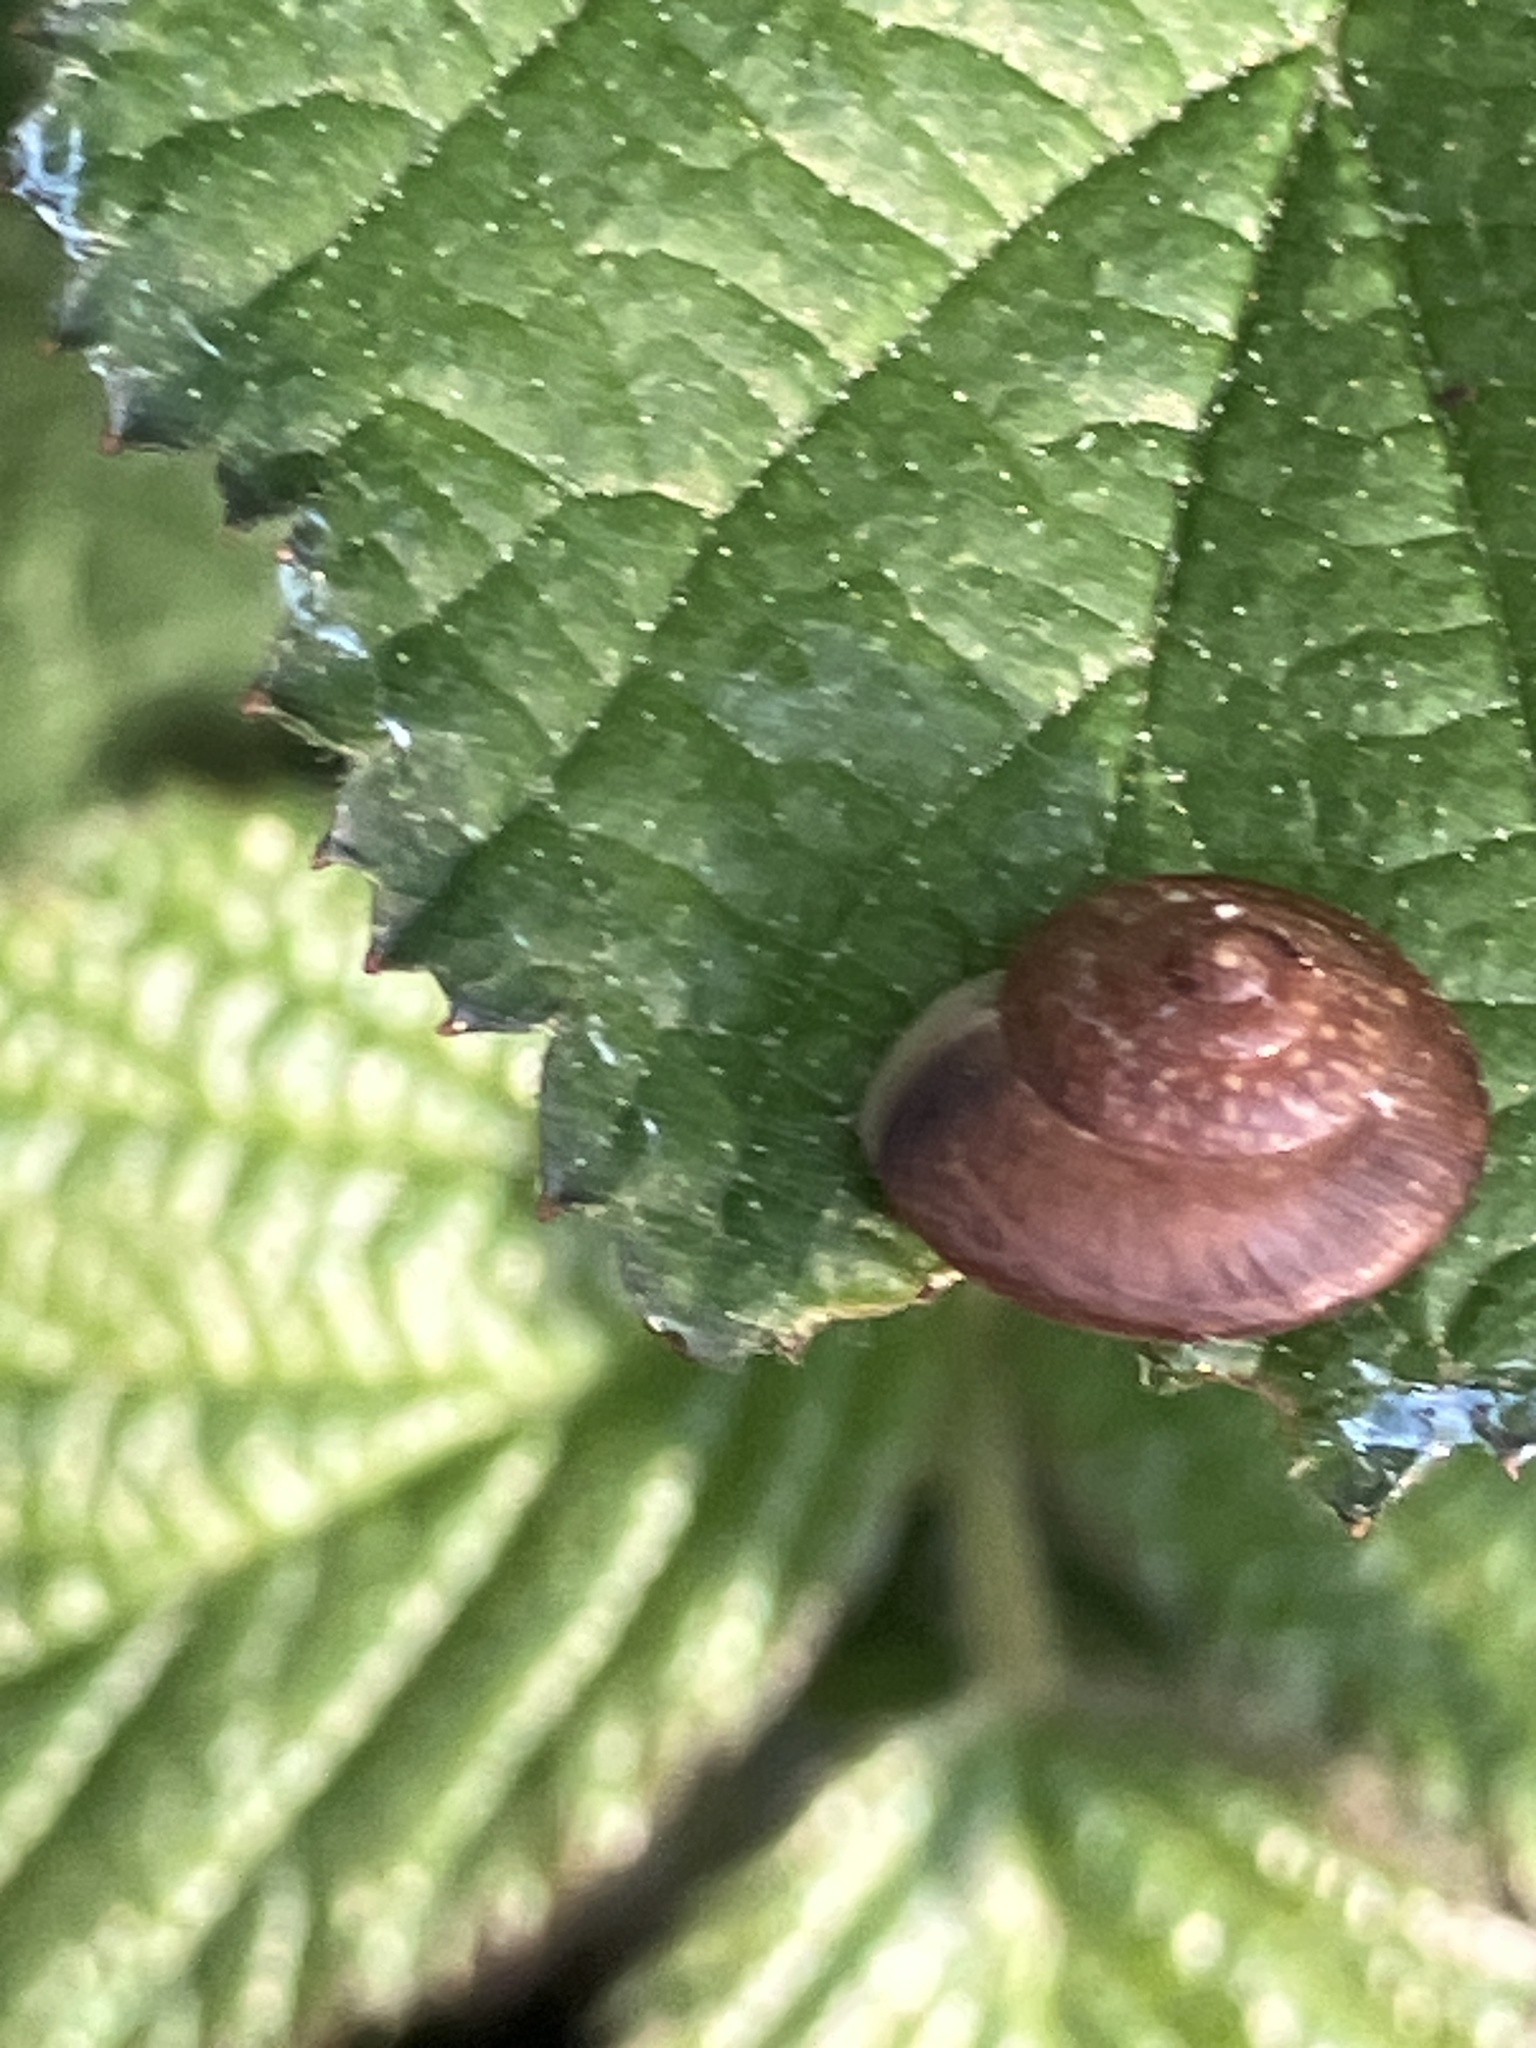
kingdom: Animalia
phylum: Mollusca
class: Gastropoda
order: Stylommatophora
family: Hygromiidae
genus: Hygromia
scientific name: Hygromia cinctella
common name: Girdled snail
